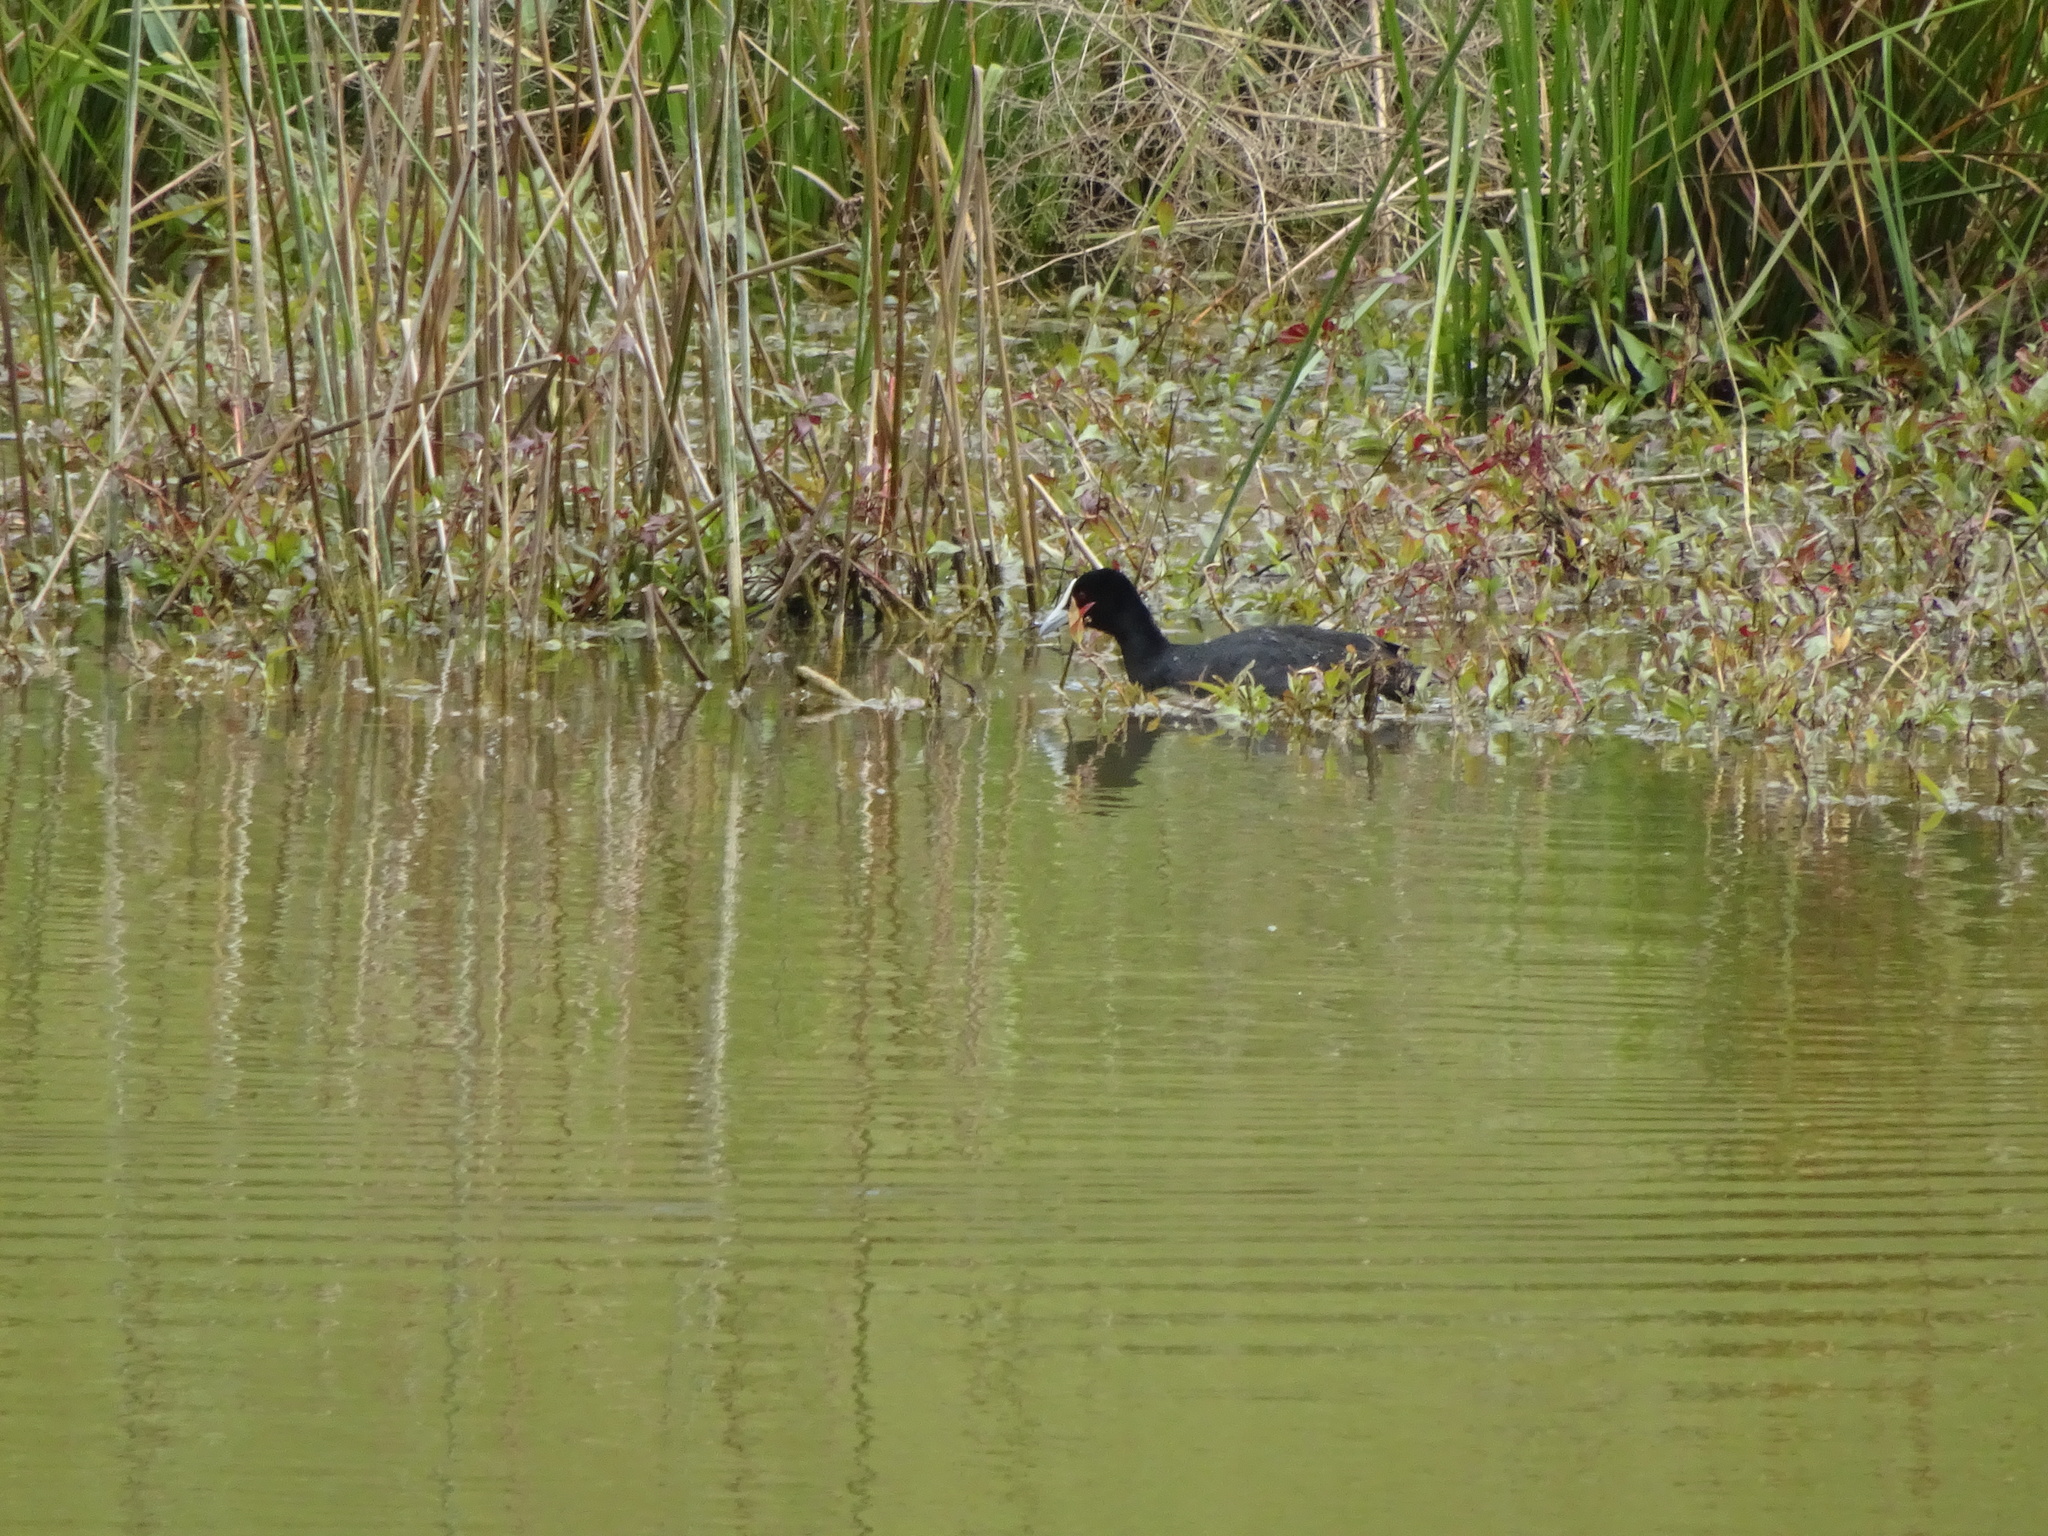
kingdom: Animalia
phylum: Chordata
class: Aves
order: Gruiformes
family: Rallidae
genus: Fulica
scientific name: Fulica atra
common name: Eurasian coot
